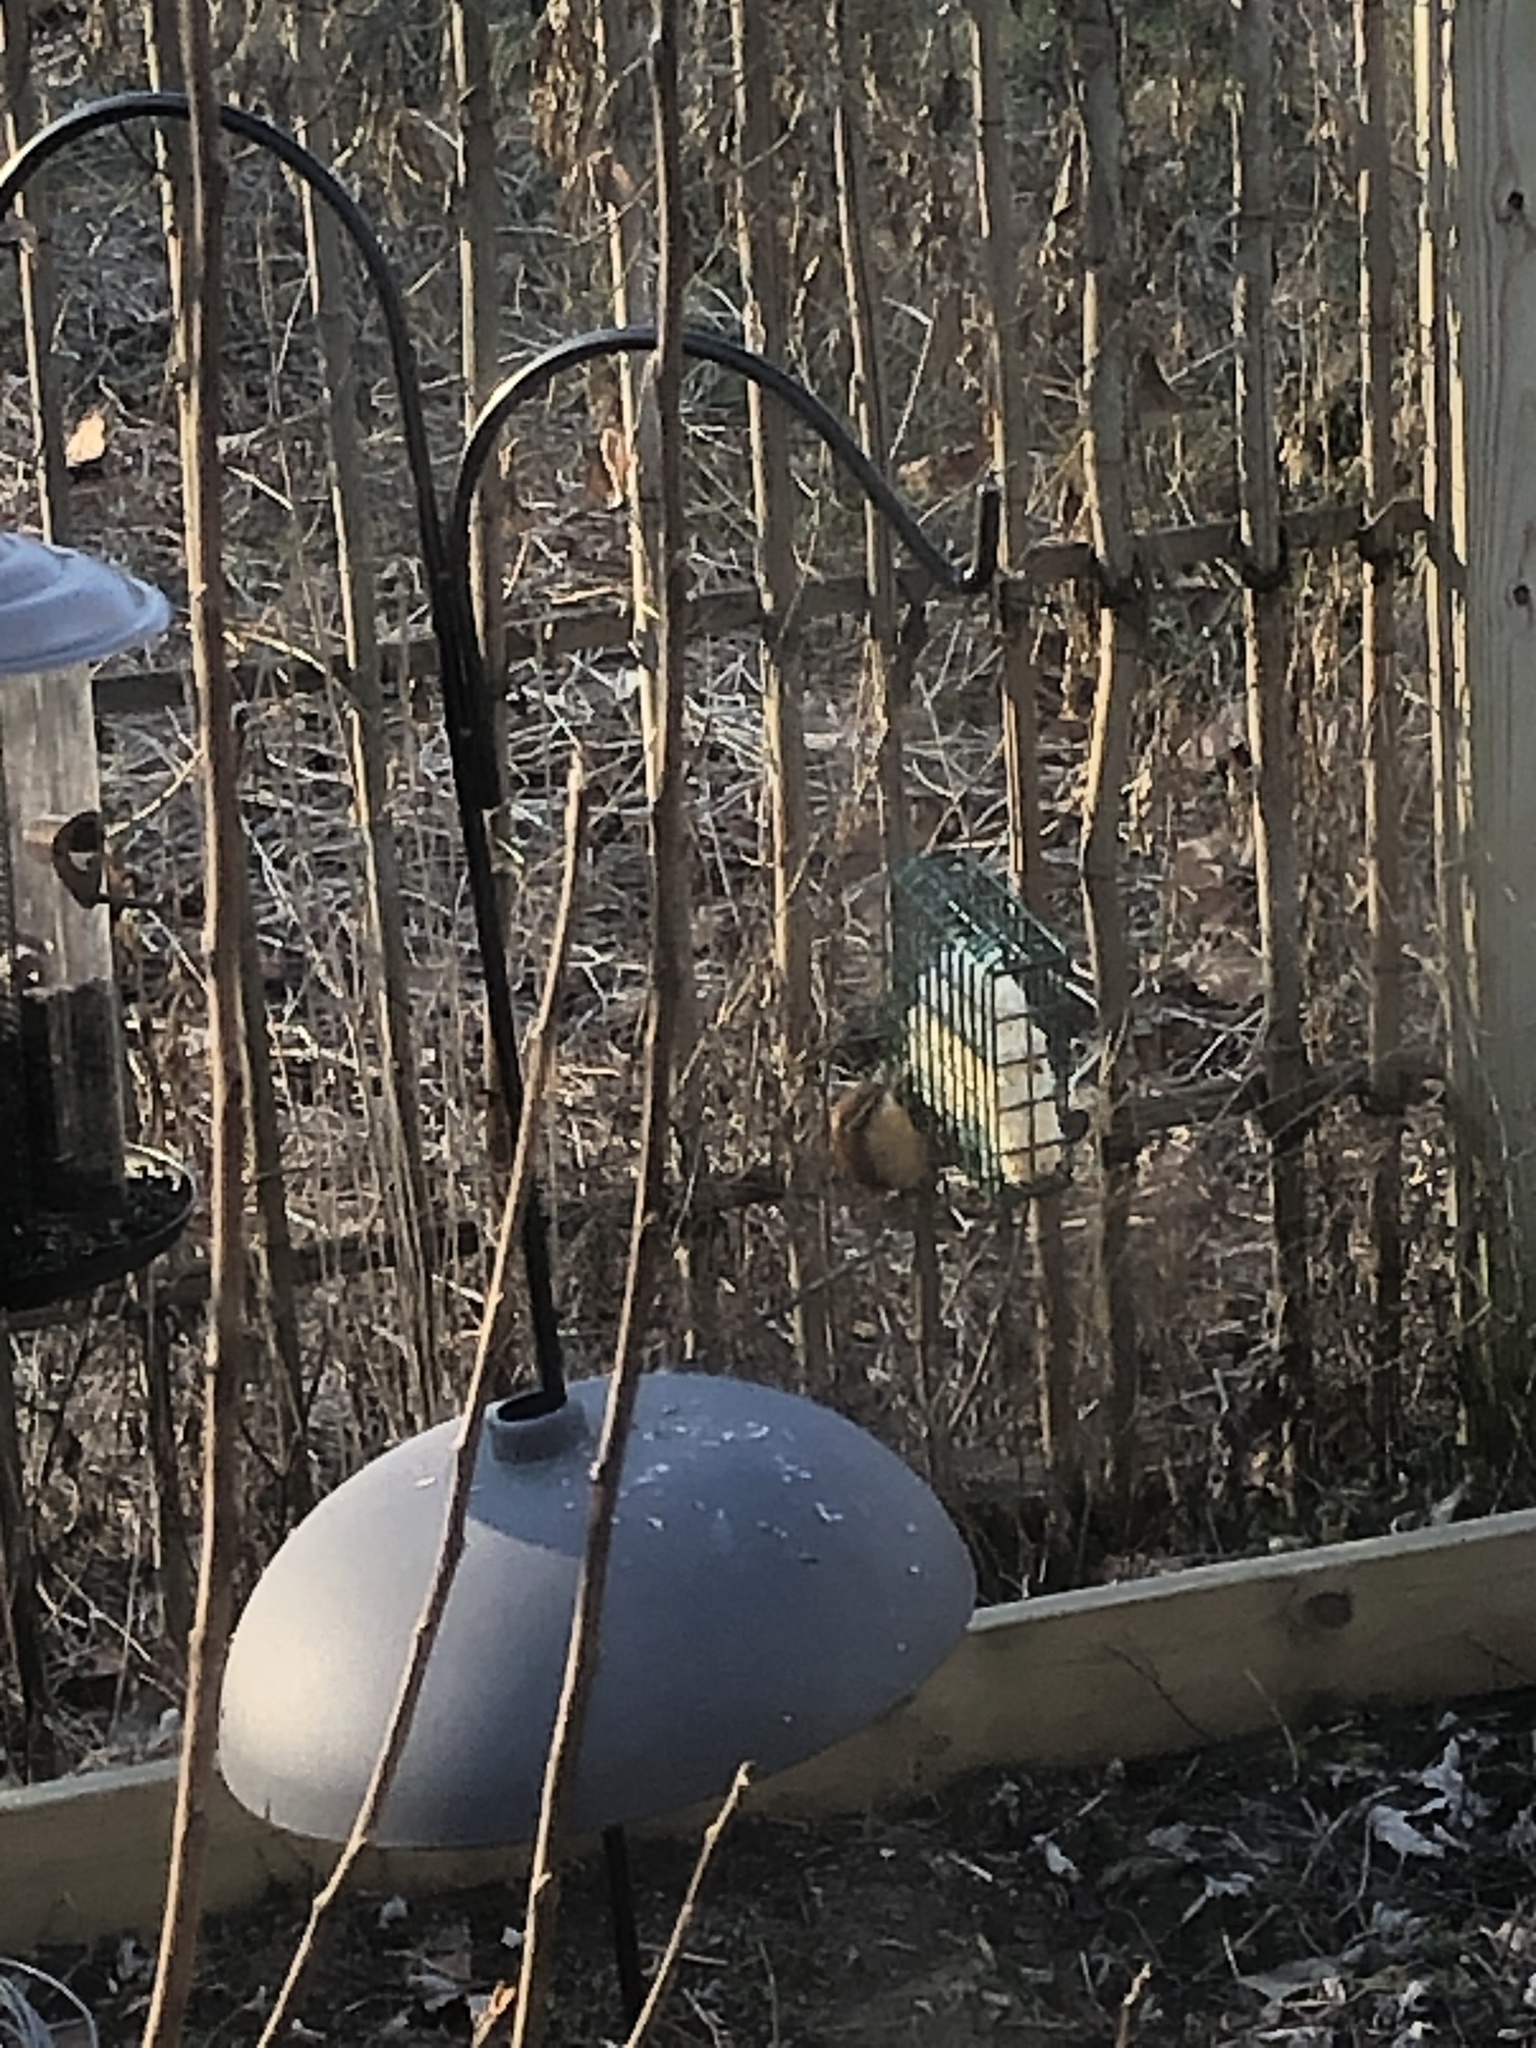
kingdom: Animalia
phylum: Chordata
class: Aves
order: Passeriformes
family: Troglodytidae
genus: Thryothorus
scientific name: Thryothorus ludovicianus
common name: Carolina wren
